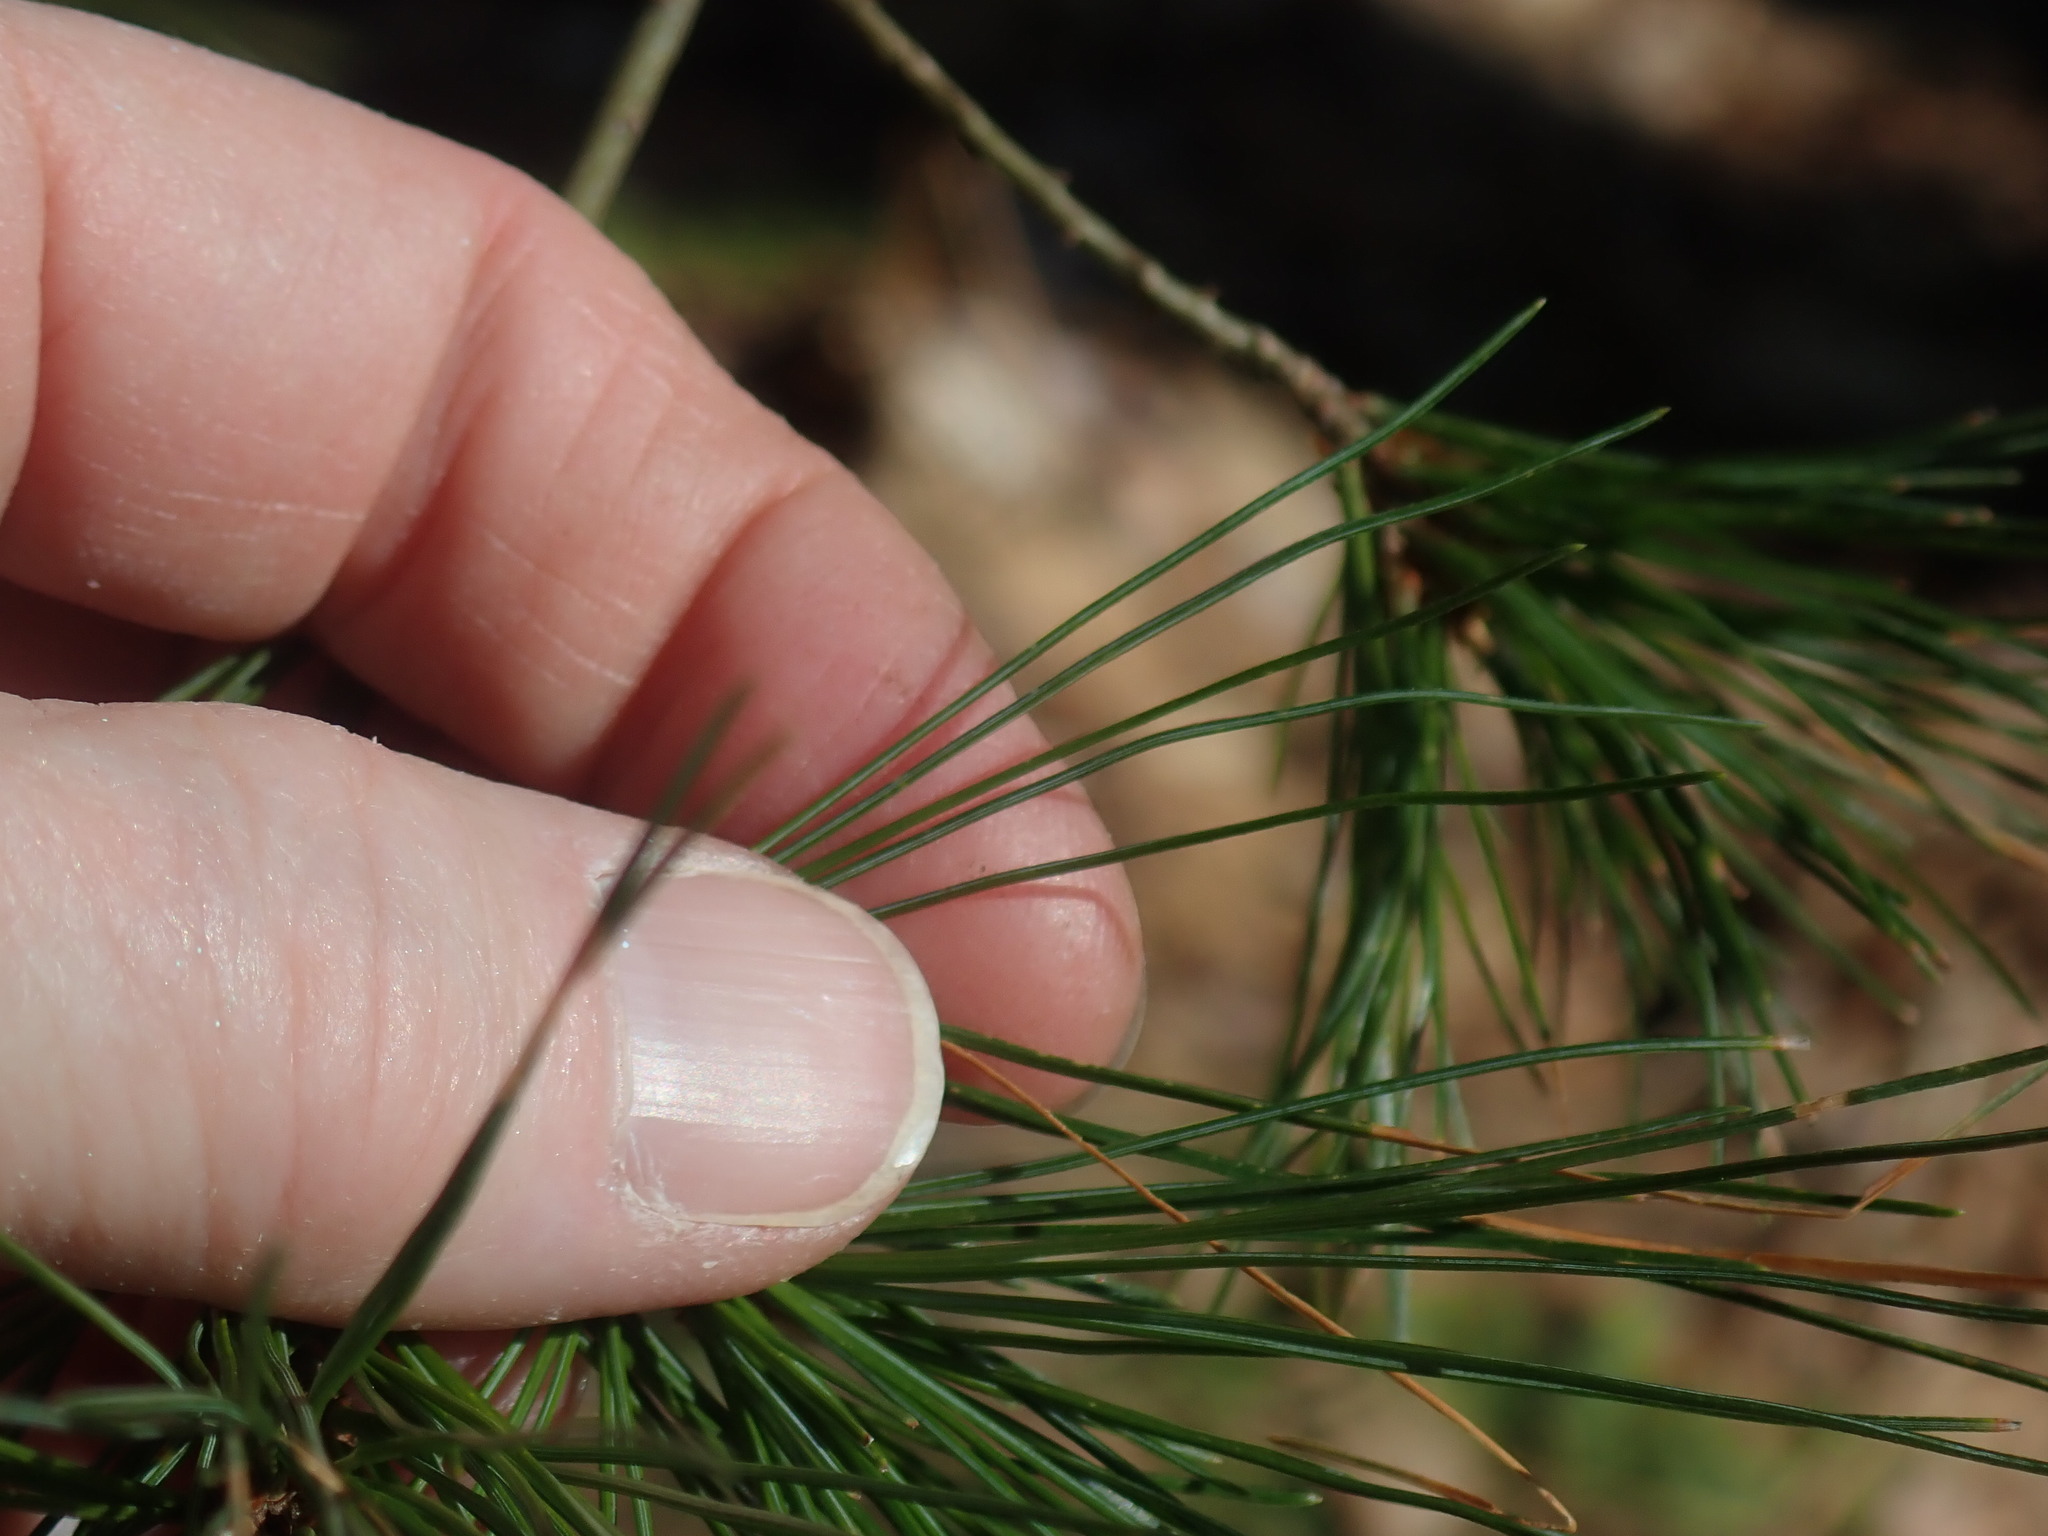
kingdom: Plantae
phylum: Tracheophyta
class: Pinopsida
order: Pinales
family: Pinaceae
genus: Pinus
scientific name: Pinus strobus
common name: Weymouth pine
